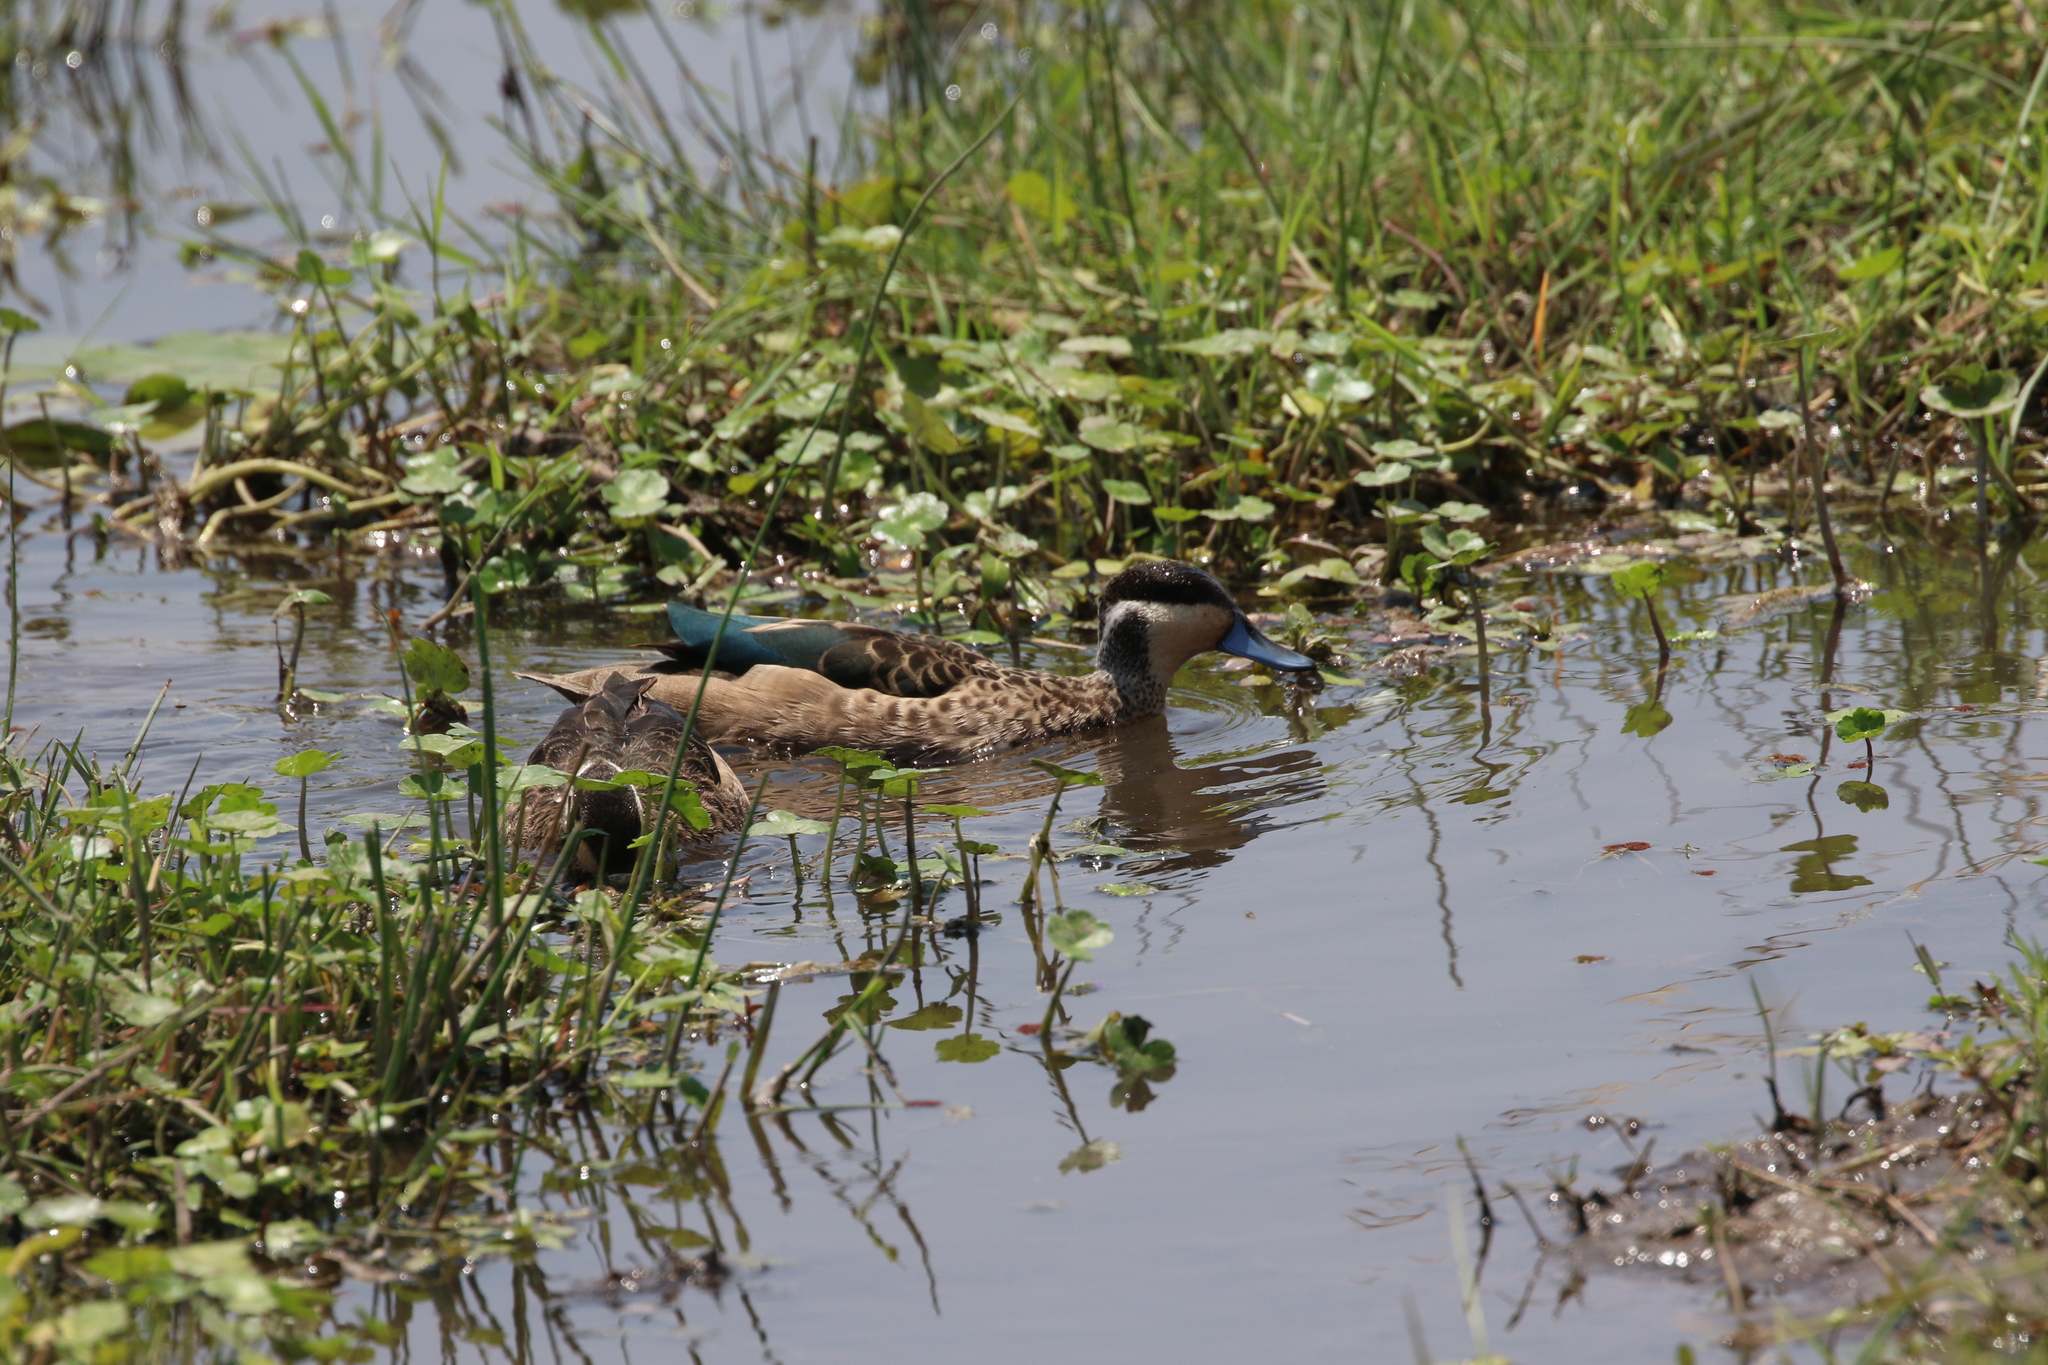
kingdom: Animalia
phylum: Chordata
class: Aves
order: Anseriformes
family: Anatidae
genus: Spatula
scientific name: Spatula hottentota
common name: Blue-billed teal
